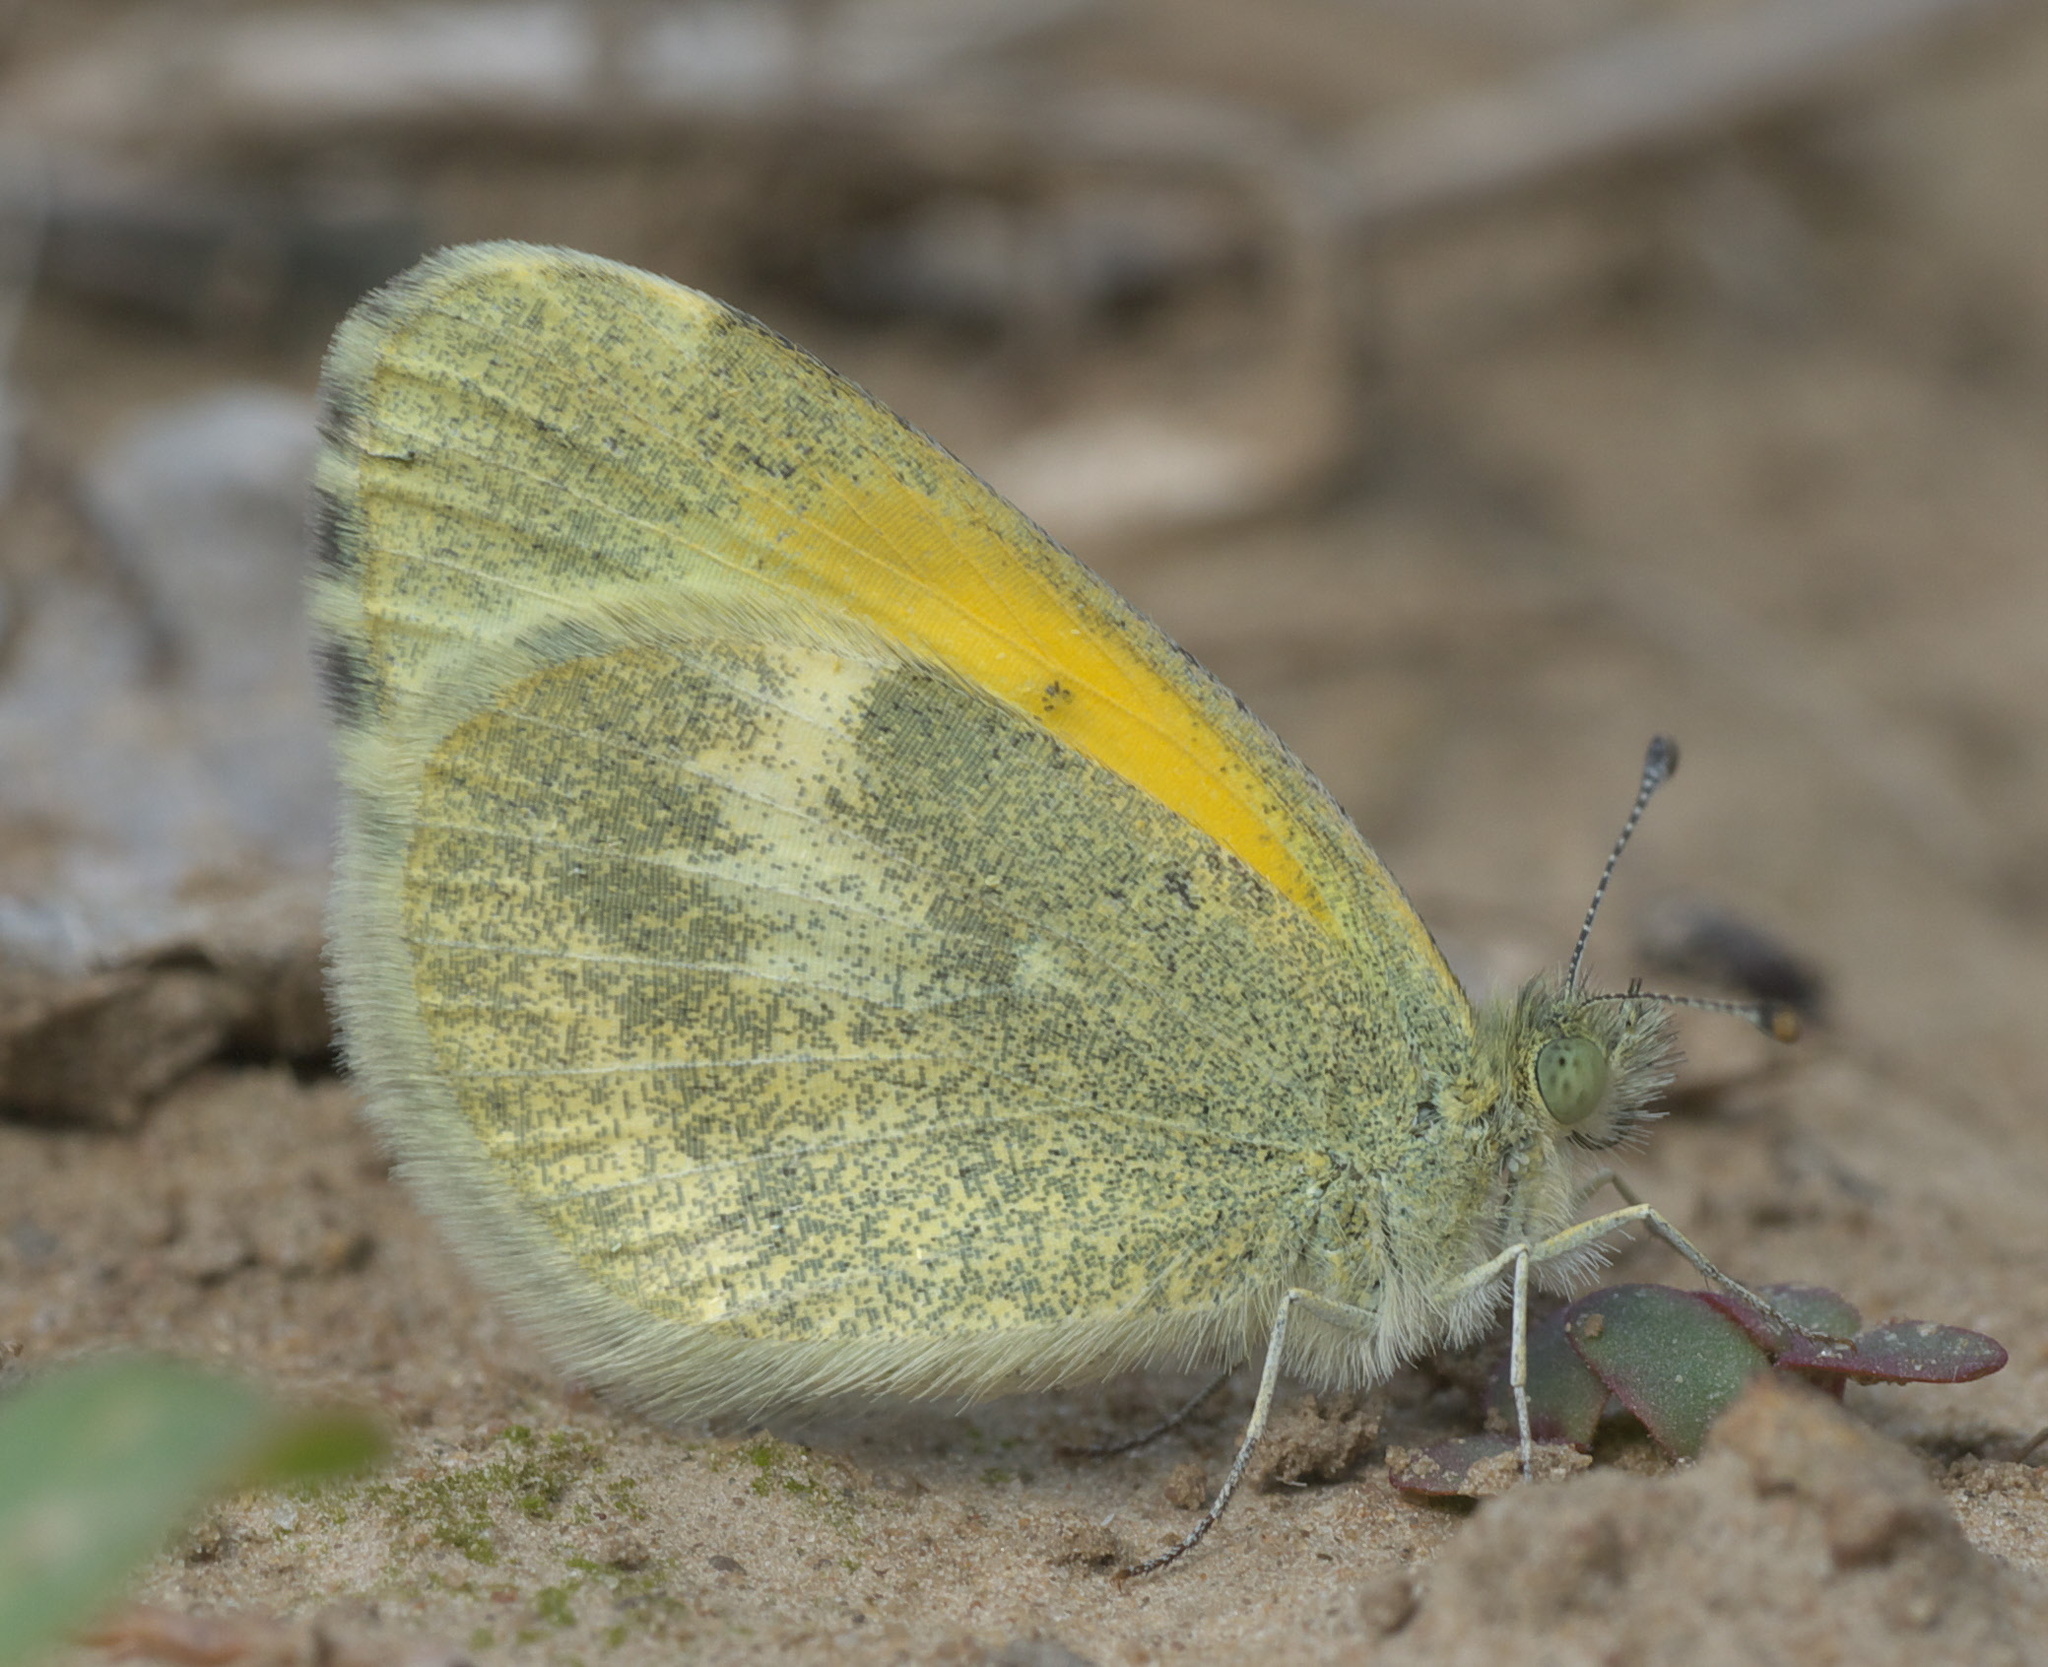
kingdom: Animalia
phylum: Arthropoda
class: Insecta
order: Lepidoptera
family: Pieridae
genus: Nathalis
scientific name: Nathalis iole
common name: Dainty sulphur
